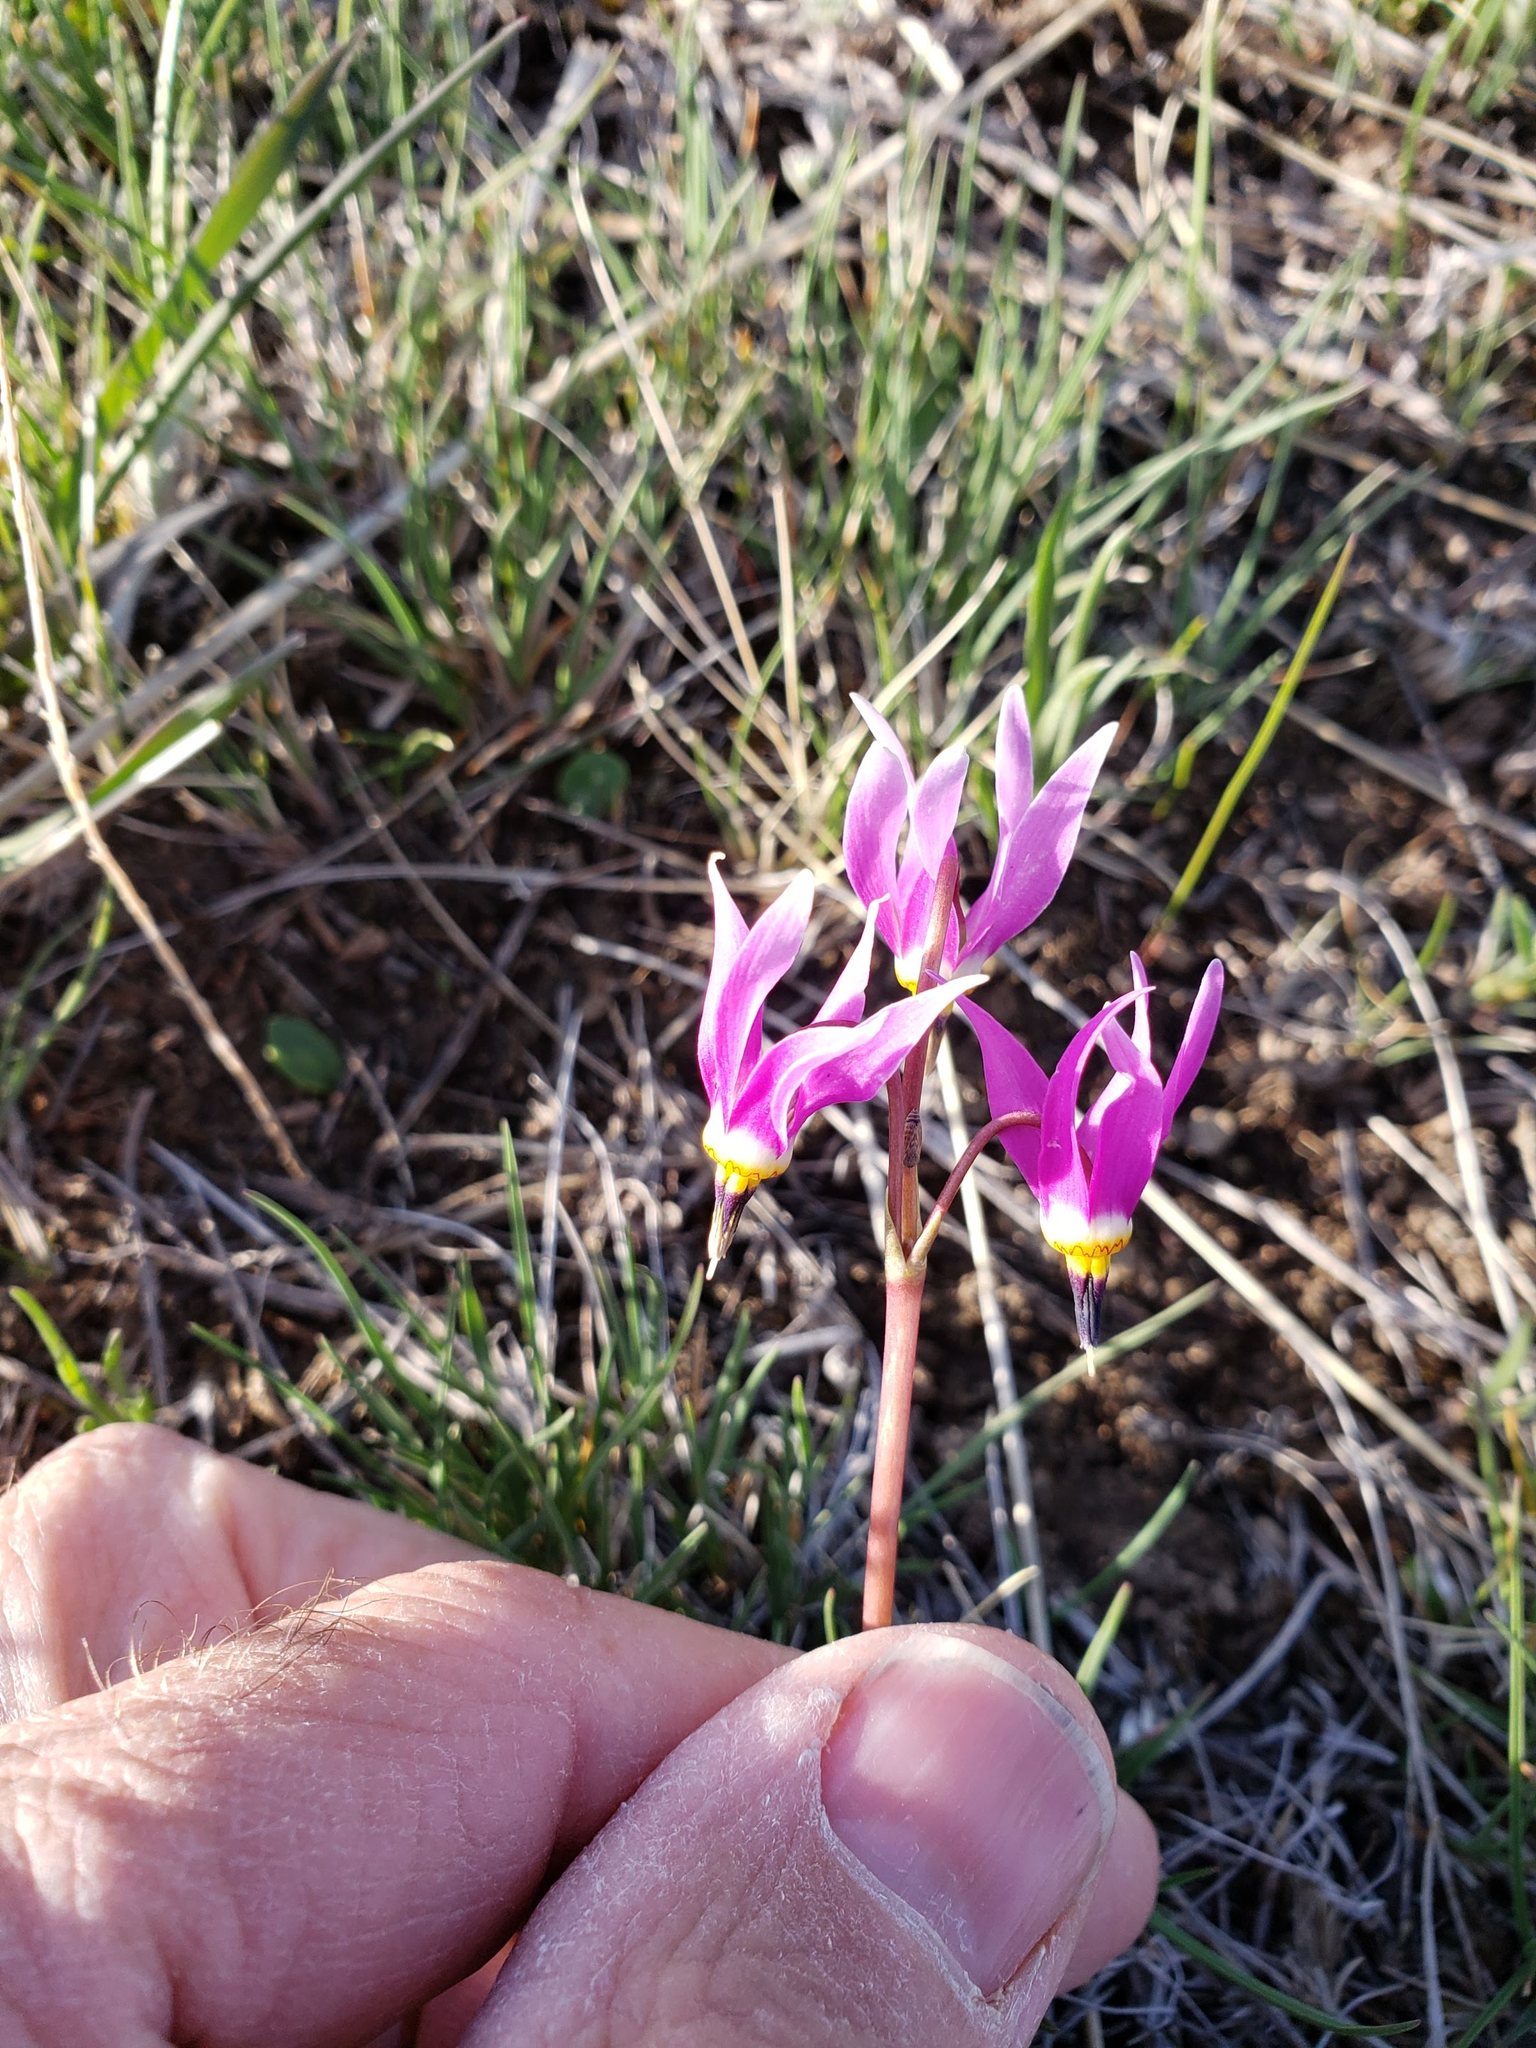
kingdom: Plantae
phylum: Tracheophyta
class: Magnoliopsida
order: Ericales
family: Primulaceae
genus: Dodecatheon
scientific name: Dodecatheon pulchellum
